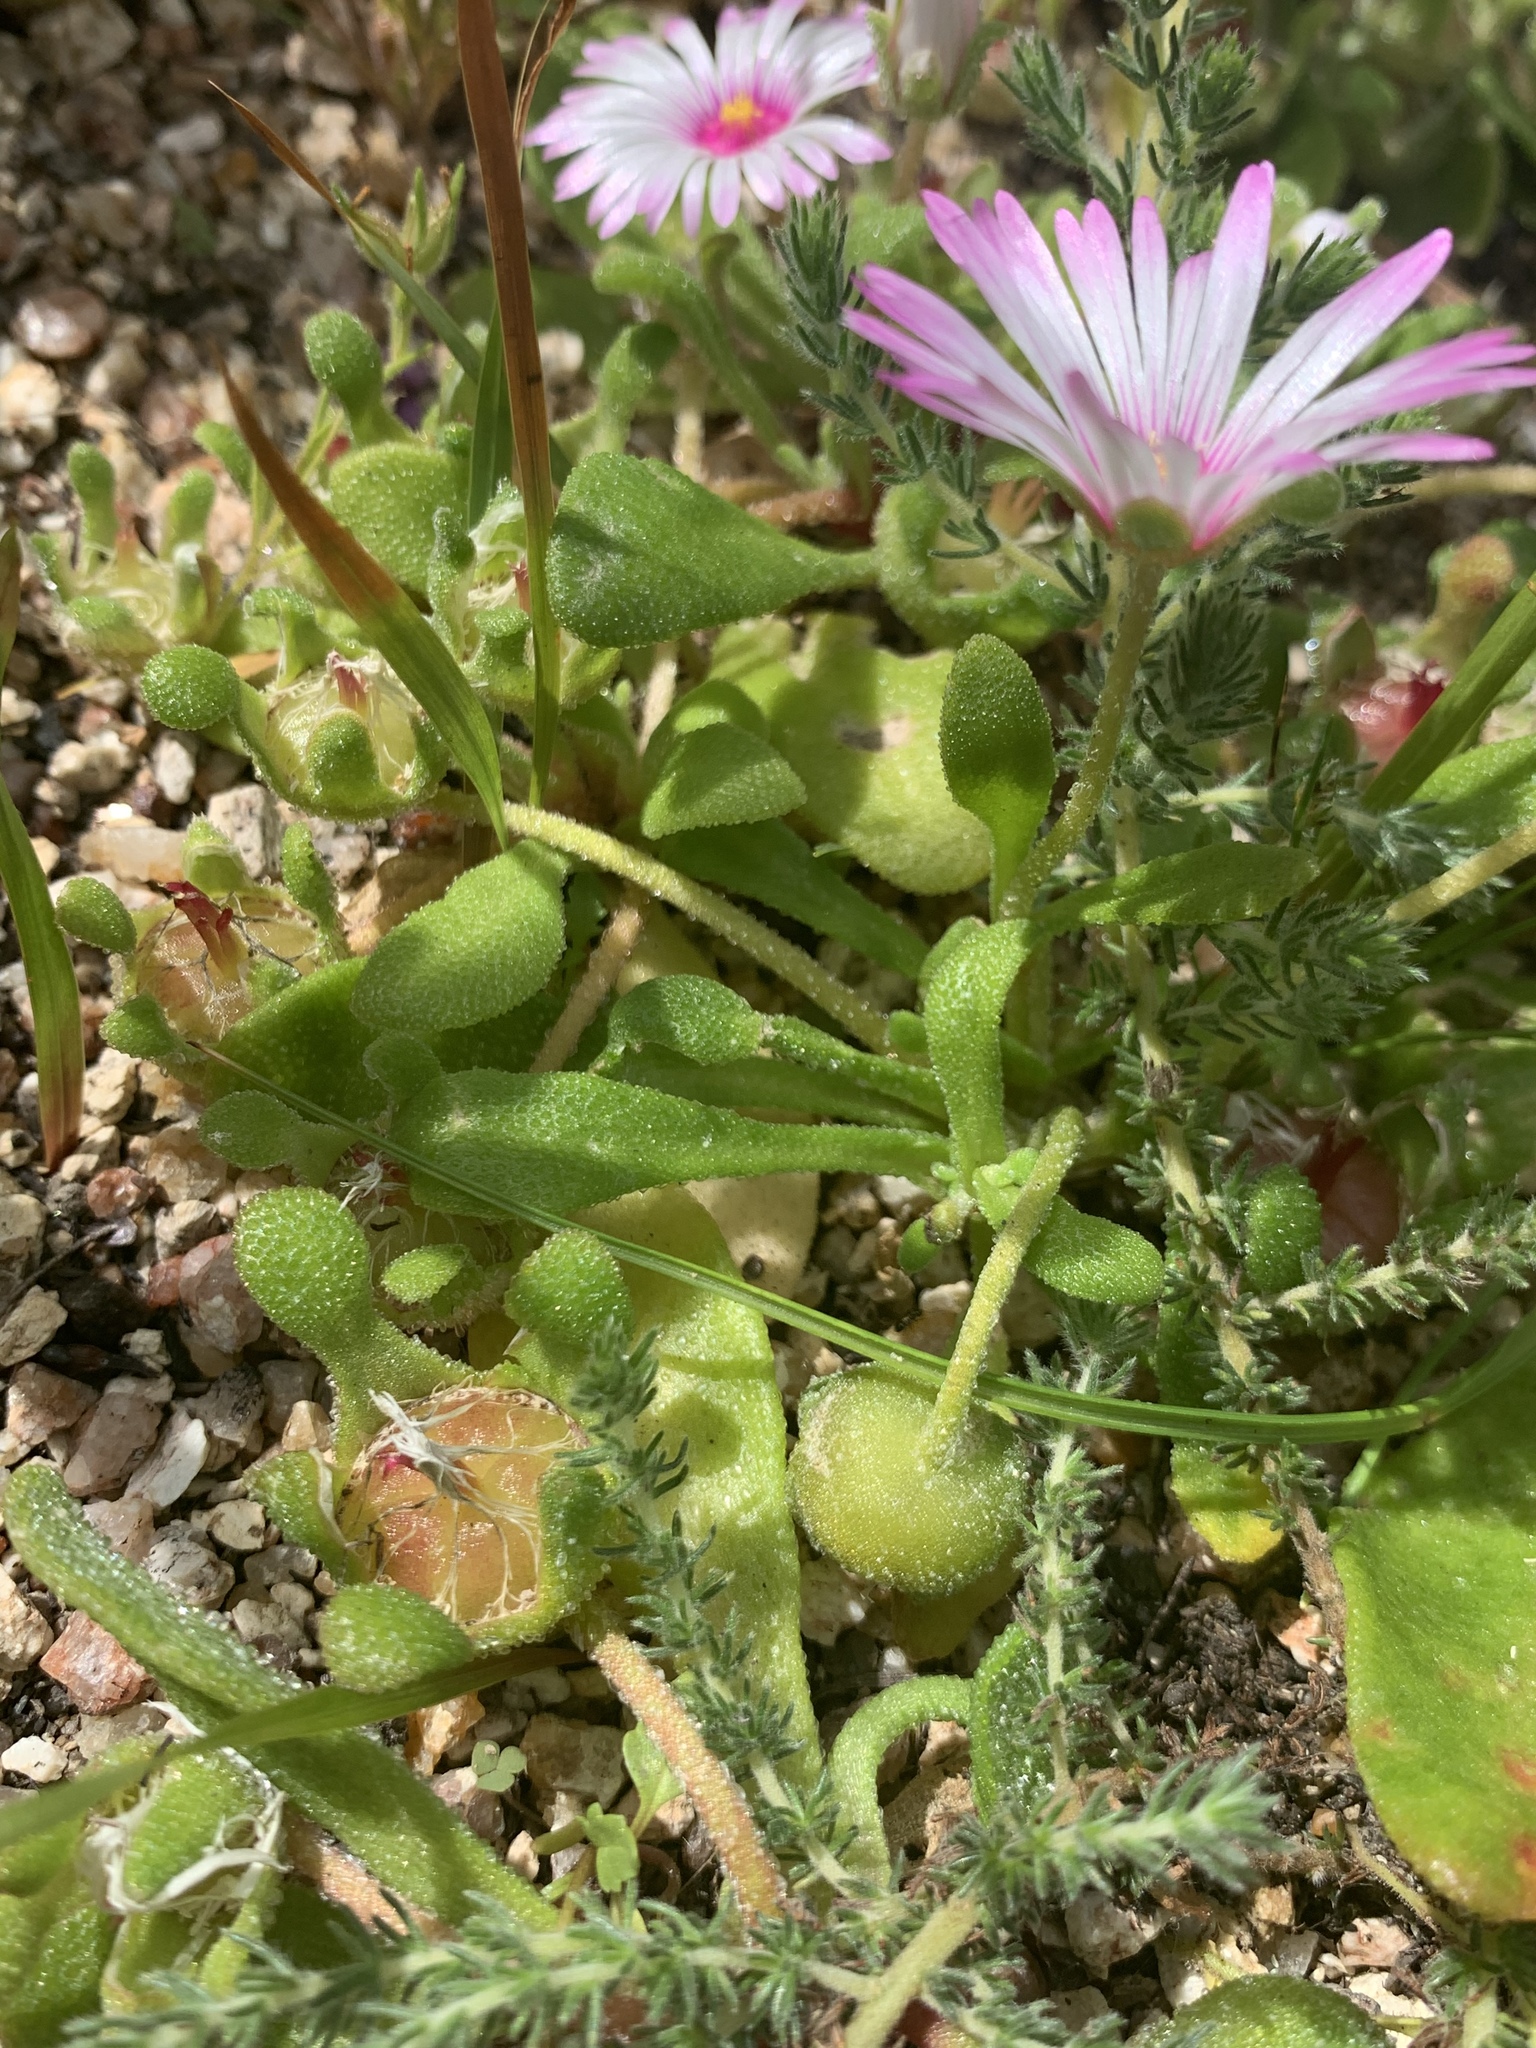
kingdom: Plantae
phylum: Tracheophyta
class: Magnoliopsida
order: Caryophyllales
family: Aizoaceae
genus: Cleretum
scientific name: Cleretum bellidiforme
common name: Livingstone daisy
